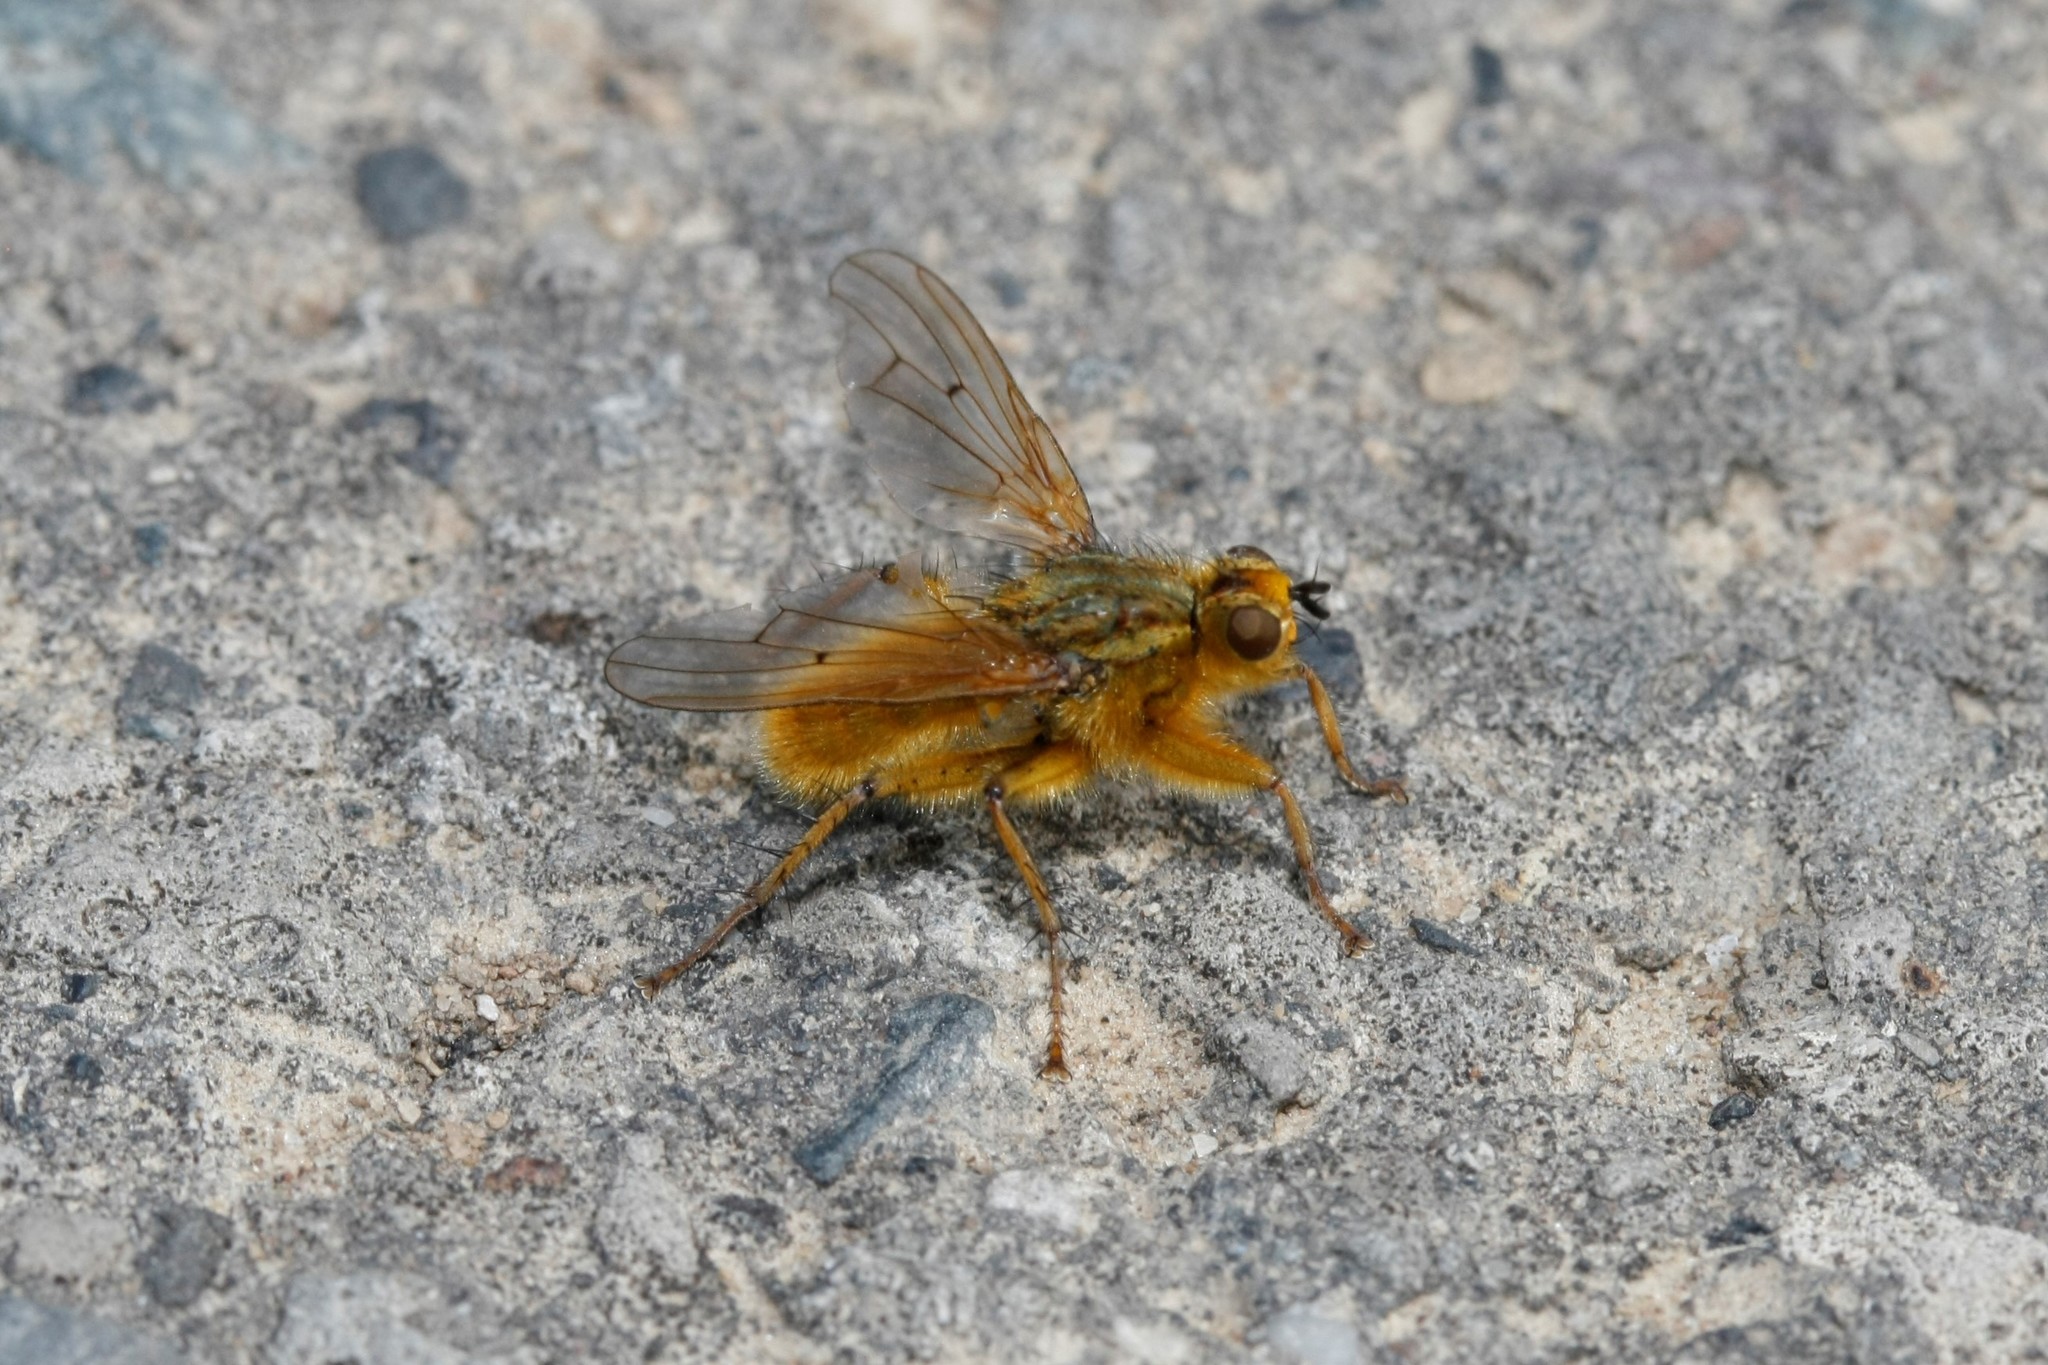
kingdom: Animalia
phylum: Arthropoda
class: Insecta
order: Diptera
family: Scathophagidae
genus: Scathophaga
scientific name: Scathophaga stercoraria
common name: Yellow dung fly
